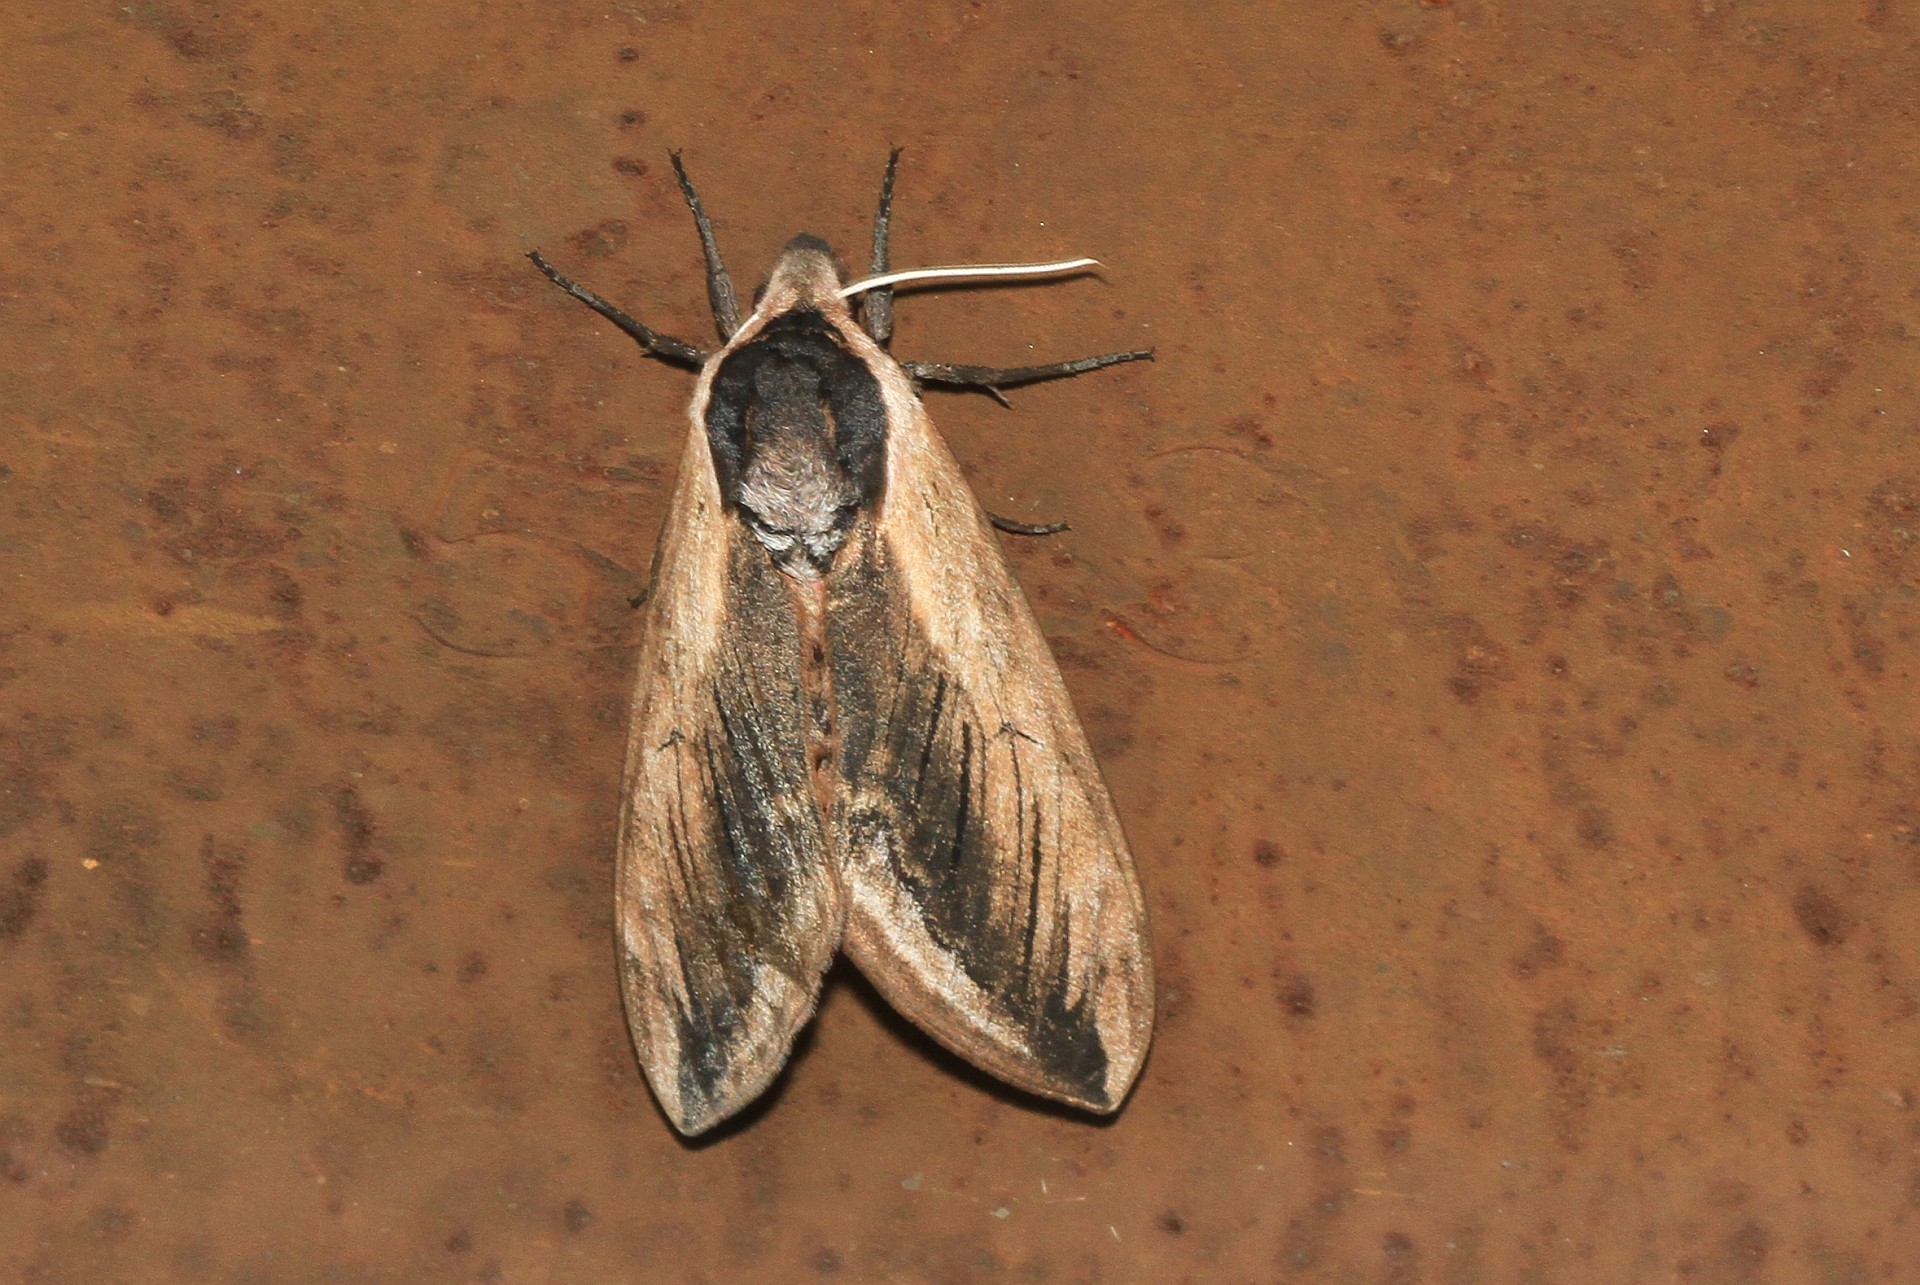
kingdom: Animalia
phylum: Arthropoda
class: Insecta
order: Lepidoptera
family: Sphingidae
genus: Sphinx
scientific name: Sphinx ligustri
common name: Privet hawk-moth
